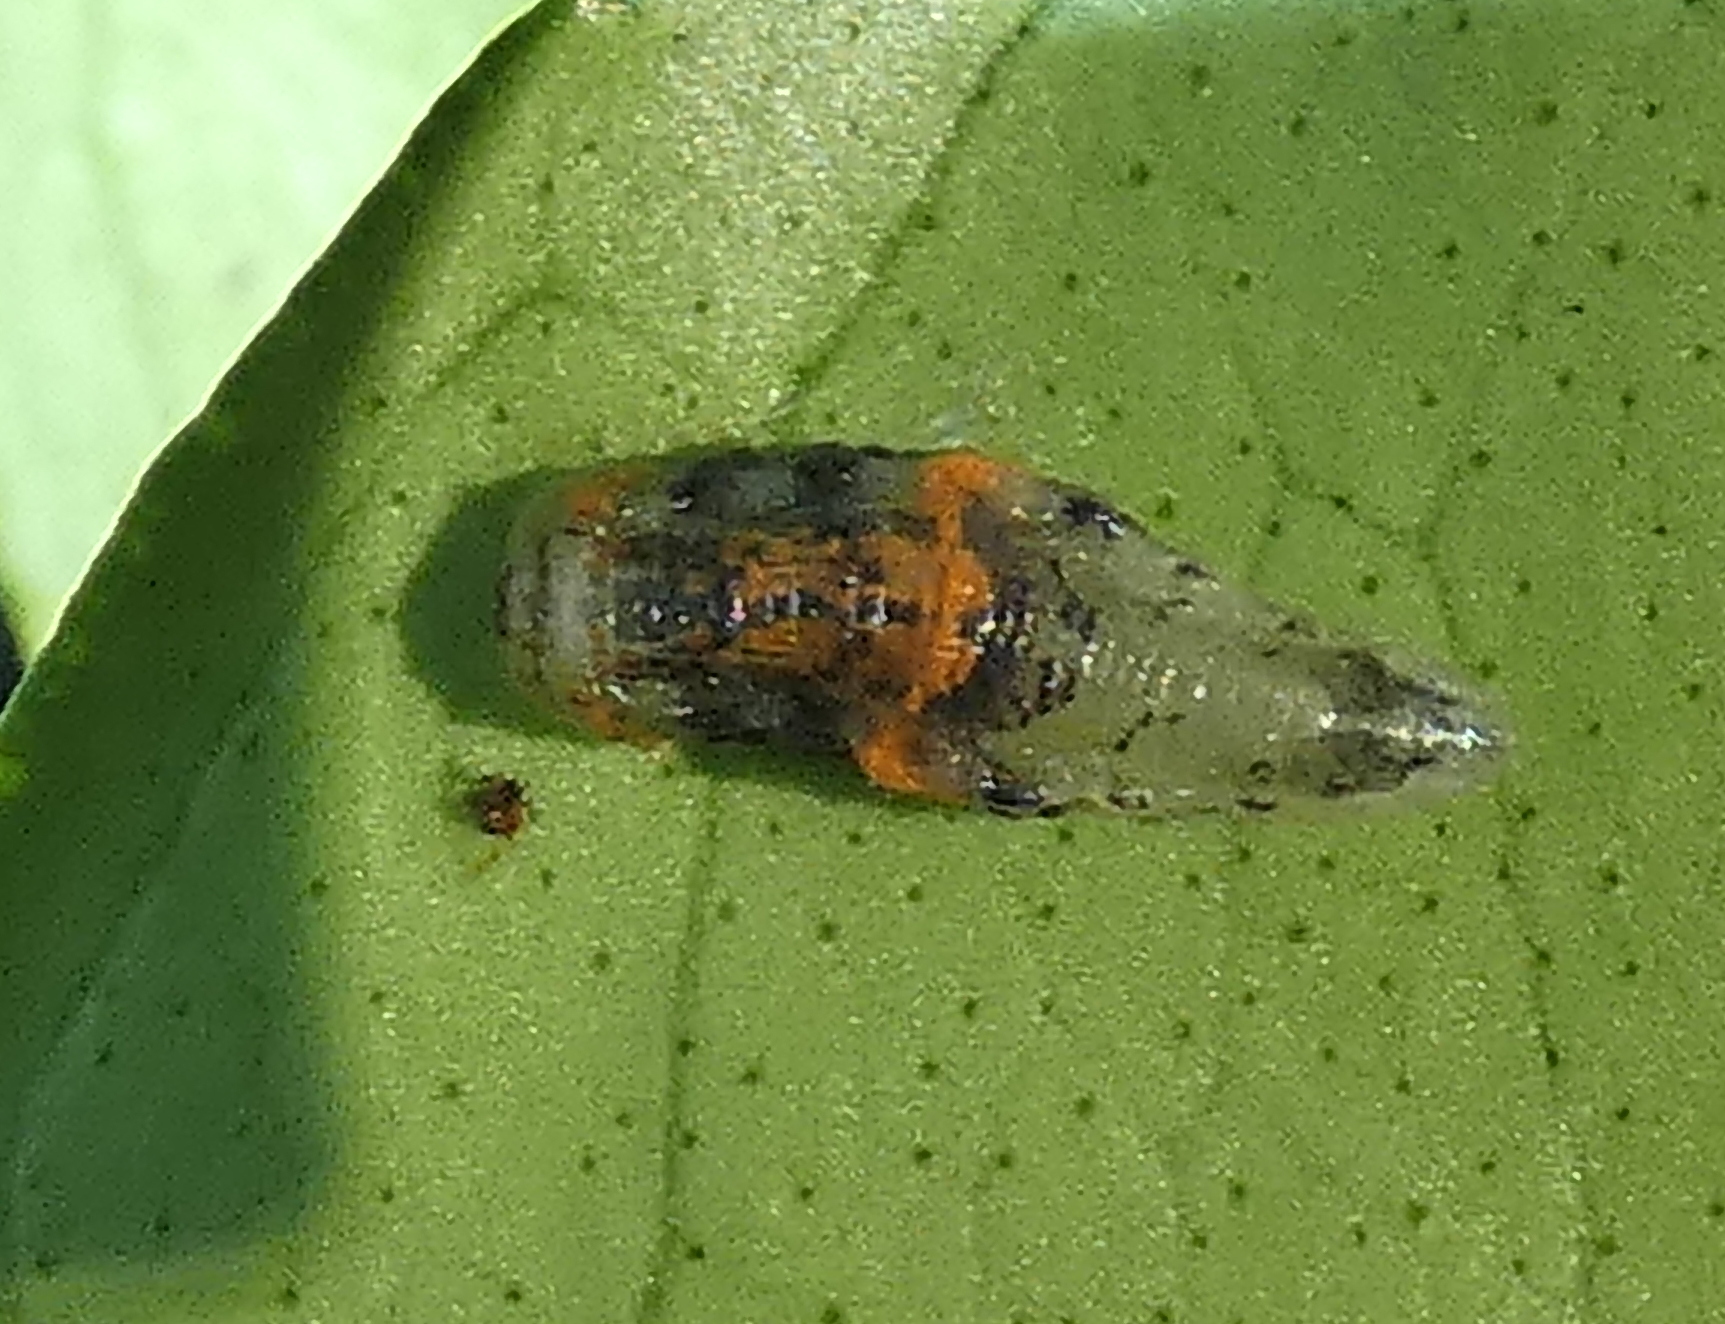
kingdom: Animalia
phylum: Arthropoda
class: Insecta
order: Diptera
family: Syrphidae
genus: Ocyptamus
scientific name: Ocyptamus gastrostactus
